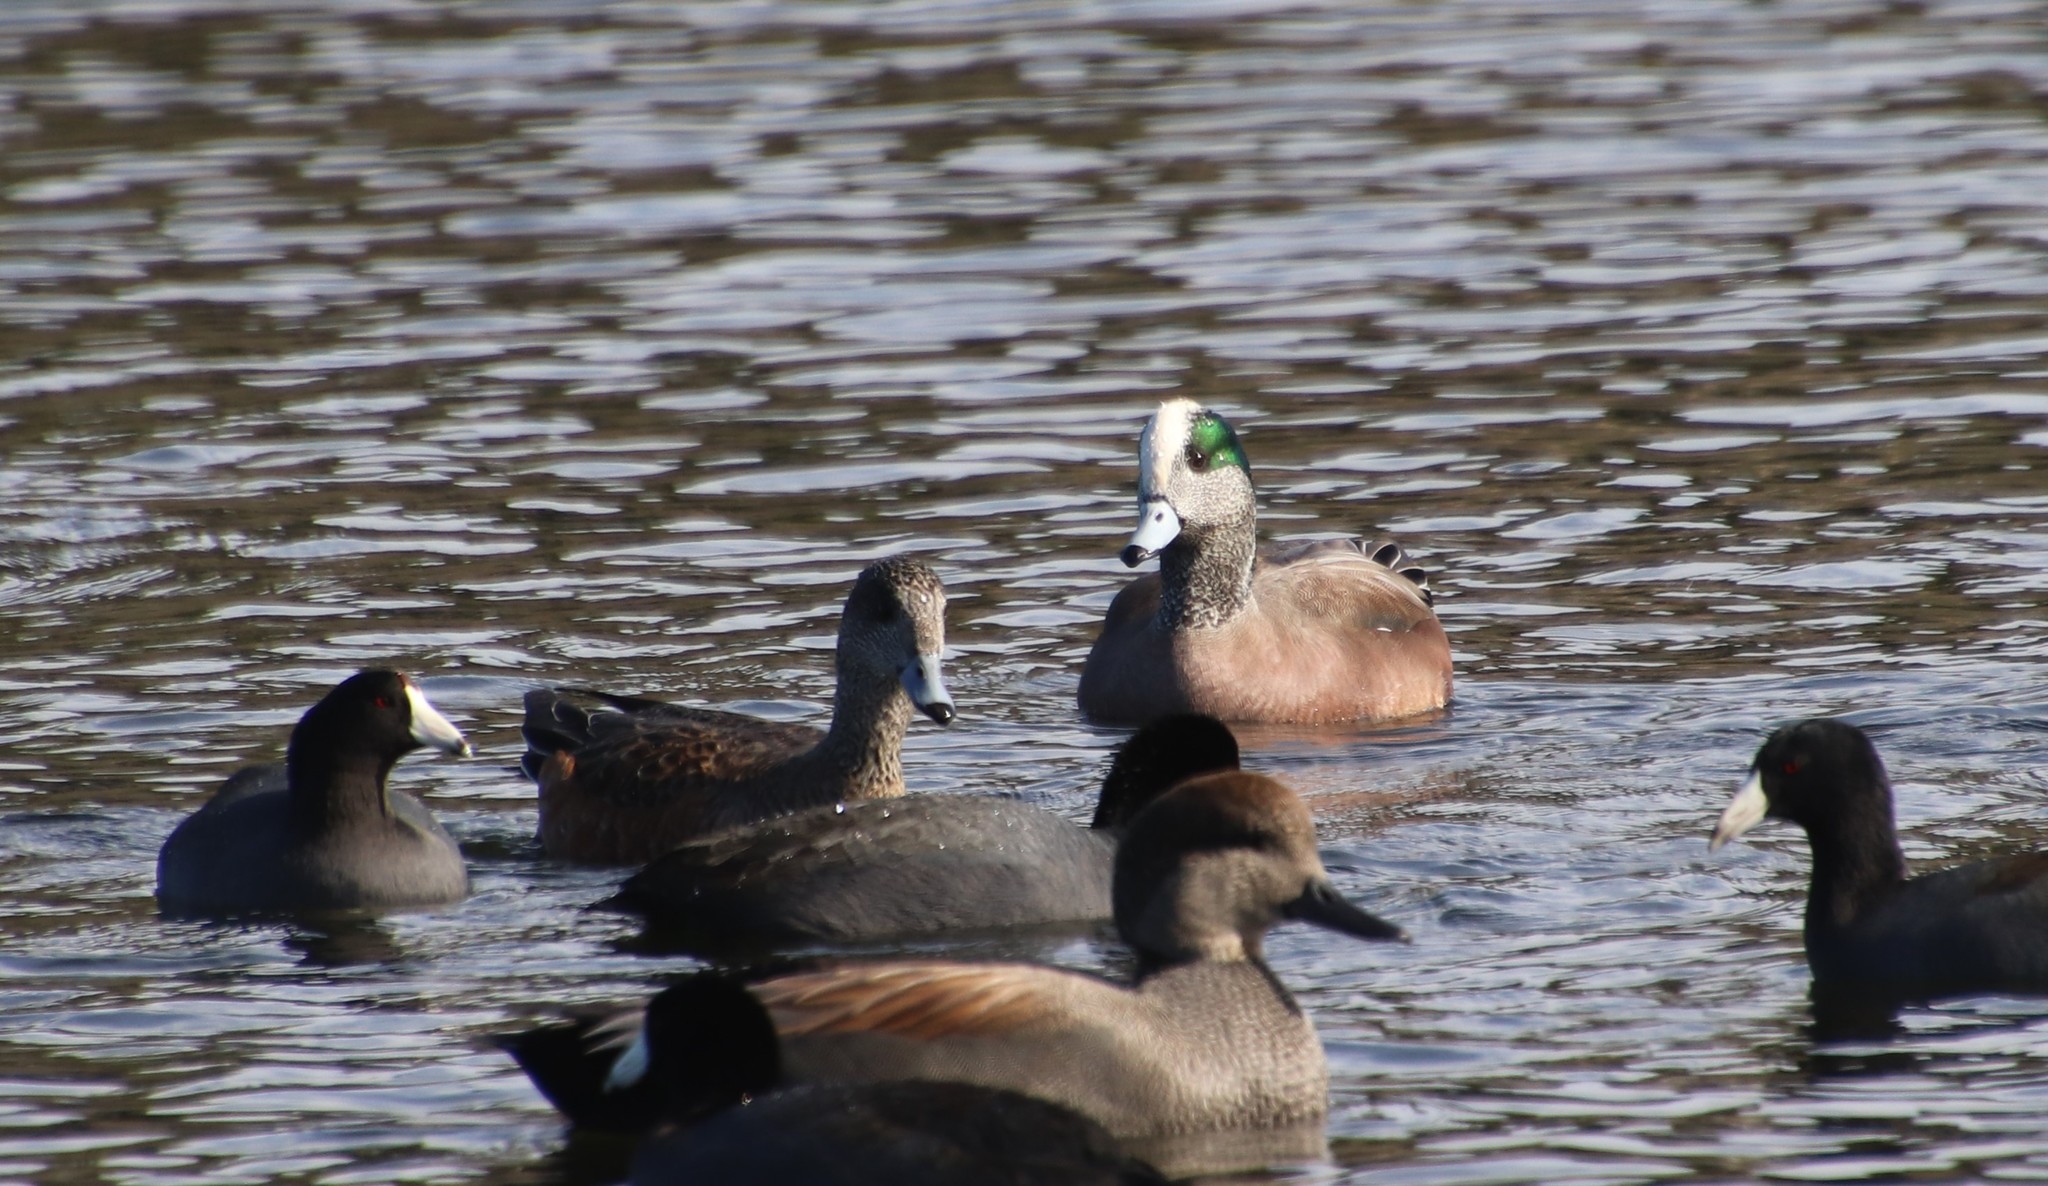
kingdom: Animalia
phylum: Chordata
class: Aves
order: Anseriformes
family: Anatidae
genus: Mareca
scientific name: Mareca americana
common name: American wigeon
